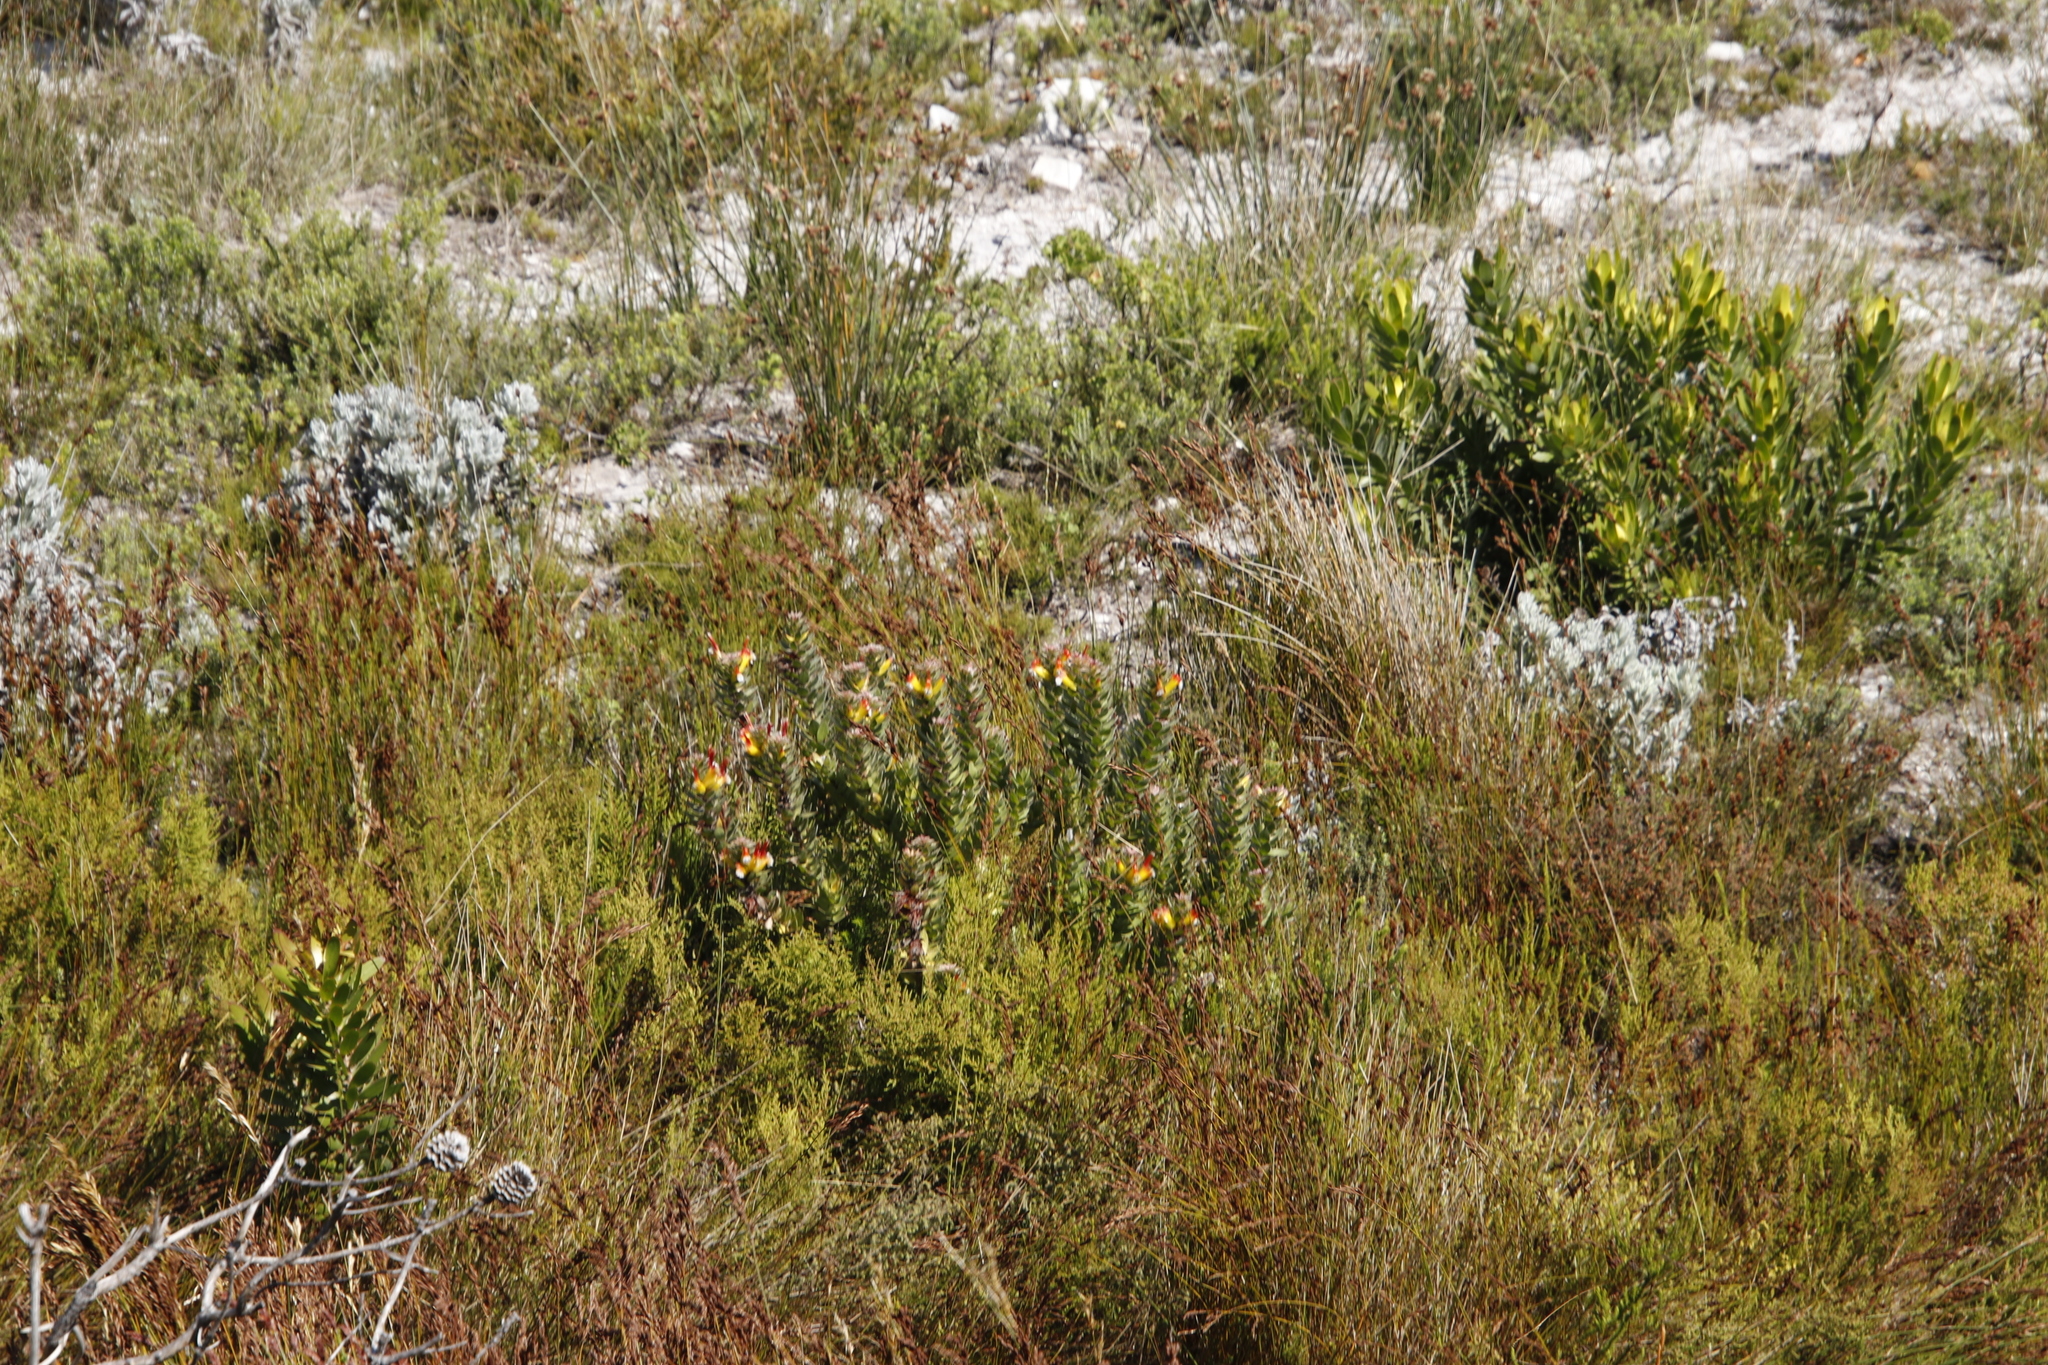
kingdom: Plantae
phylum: Tracheophyta
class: Magnoliopsida
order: Proteales
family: Proteaceae
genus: Mimetes
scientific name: Mimetes hirtus
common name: Marsh pagoda
